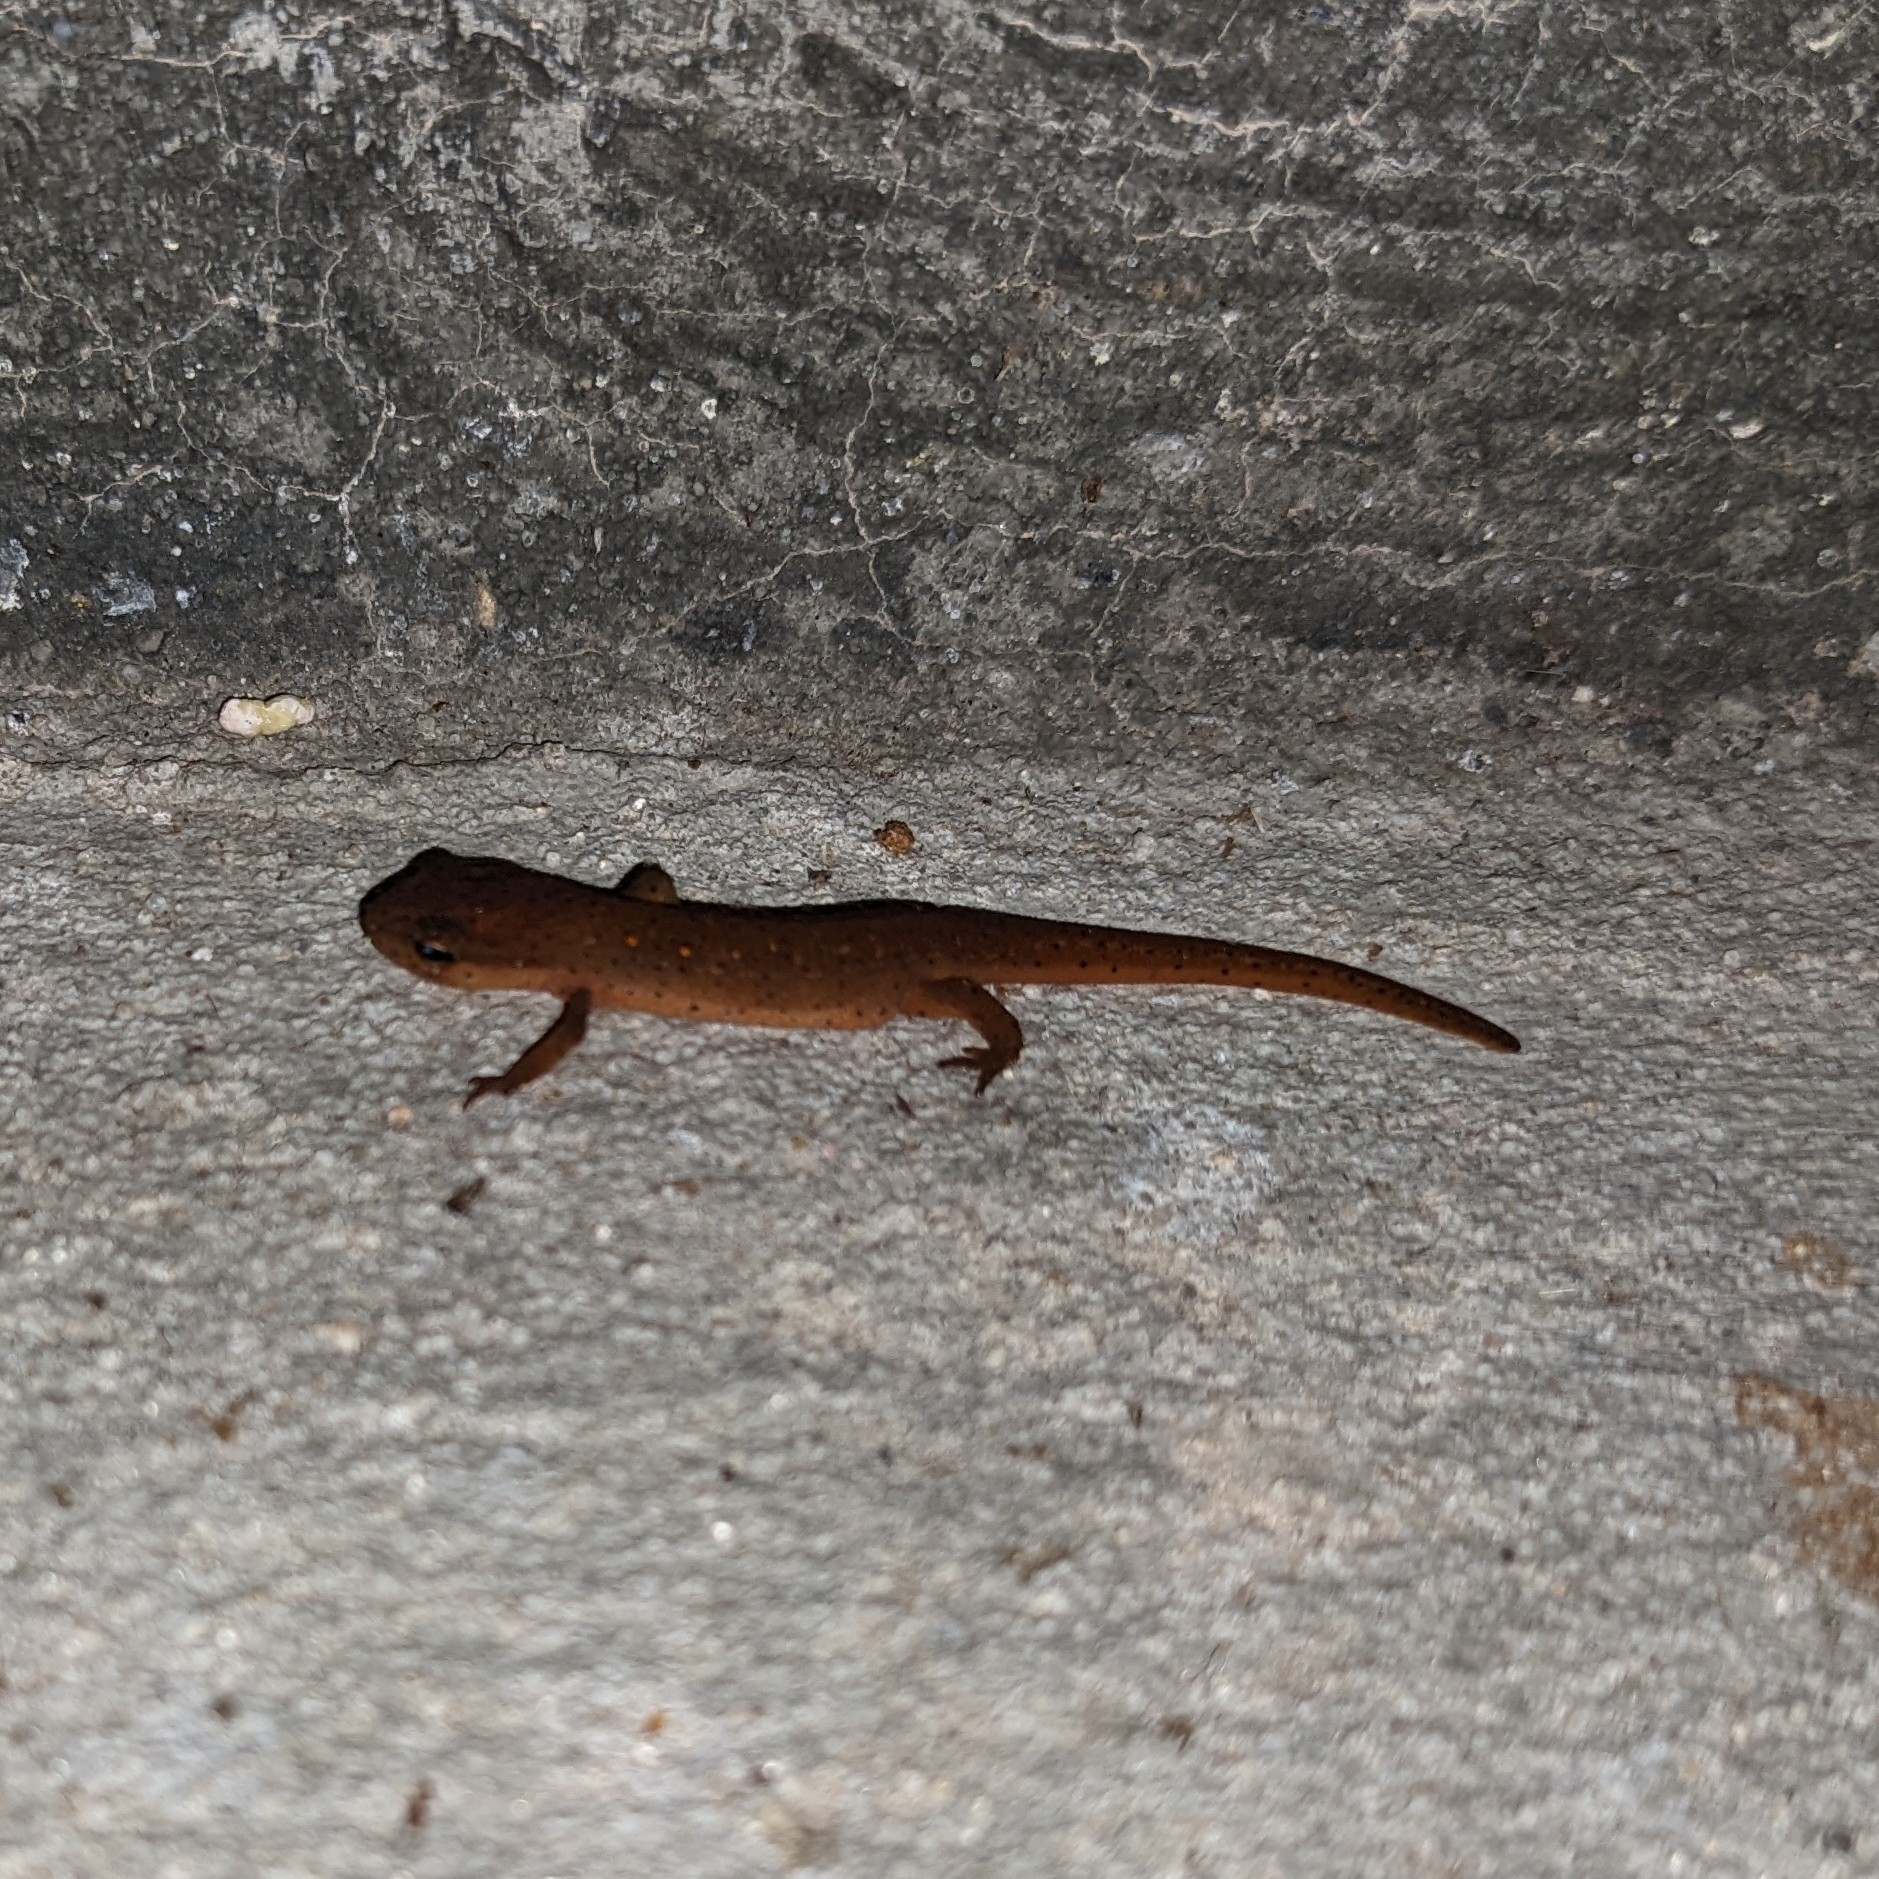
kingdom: Animalia
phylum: Chordata
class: Amphibia
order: Caudata
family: Salamandridae
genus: Notophthalmus
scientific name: Notophthalmus viridescens
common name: Eastern newt
